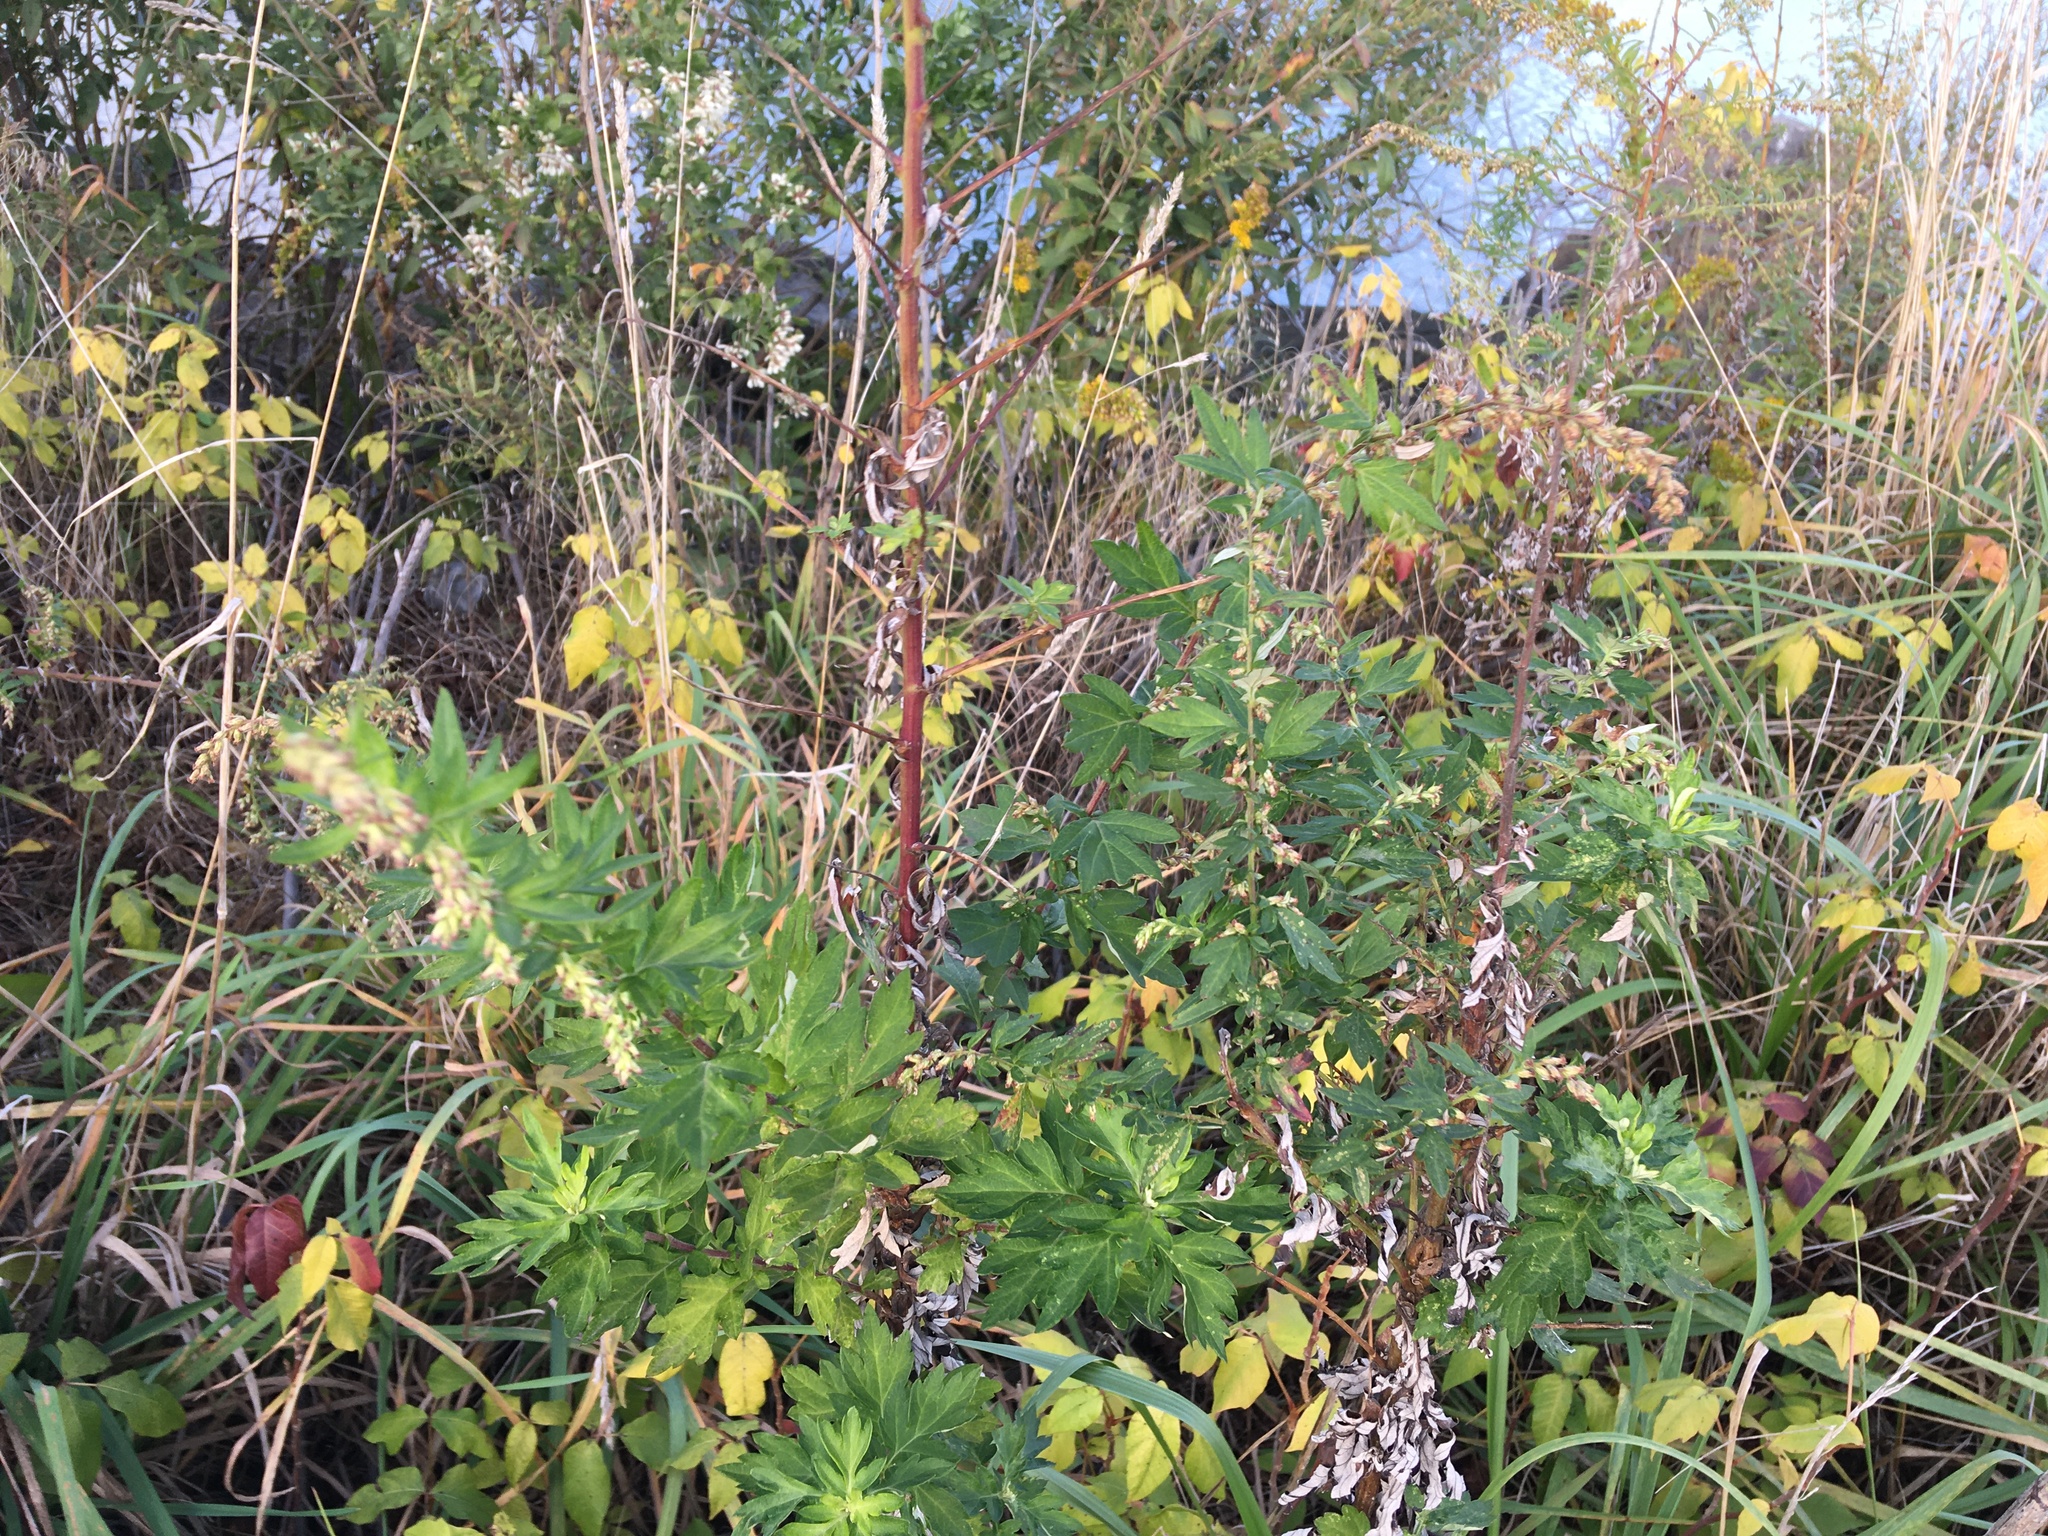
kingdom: Plantae
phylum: Tracheophyta
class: Magnoliopsida
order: Asterales
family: Asteraceae
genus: Artemisia
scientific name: Artemisia vulgaris
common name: Mugwort
